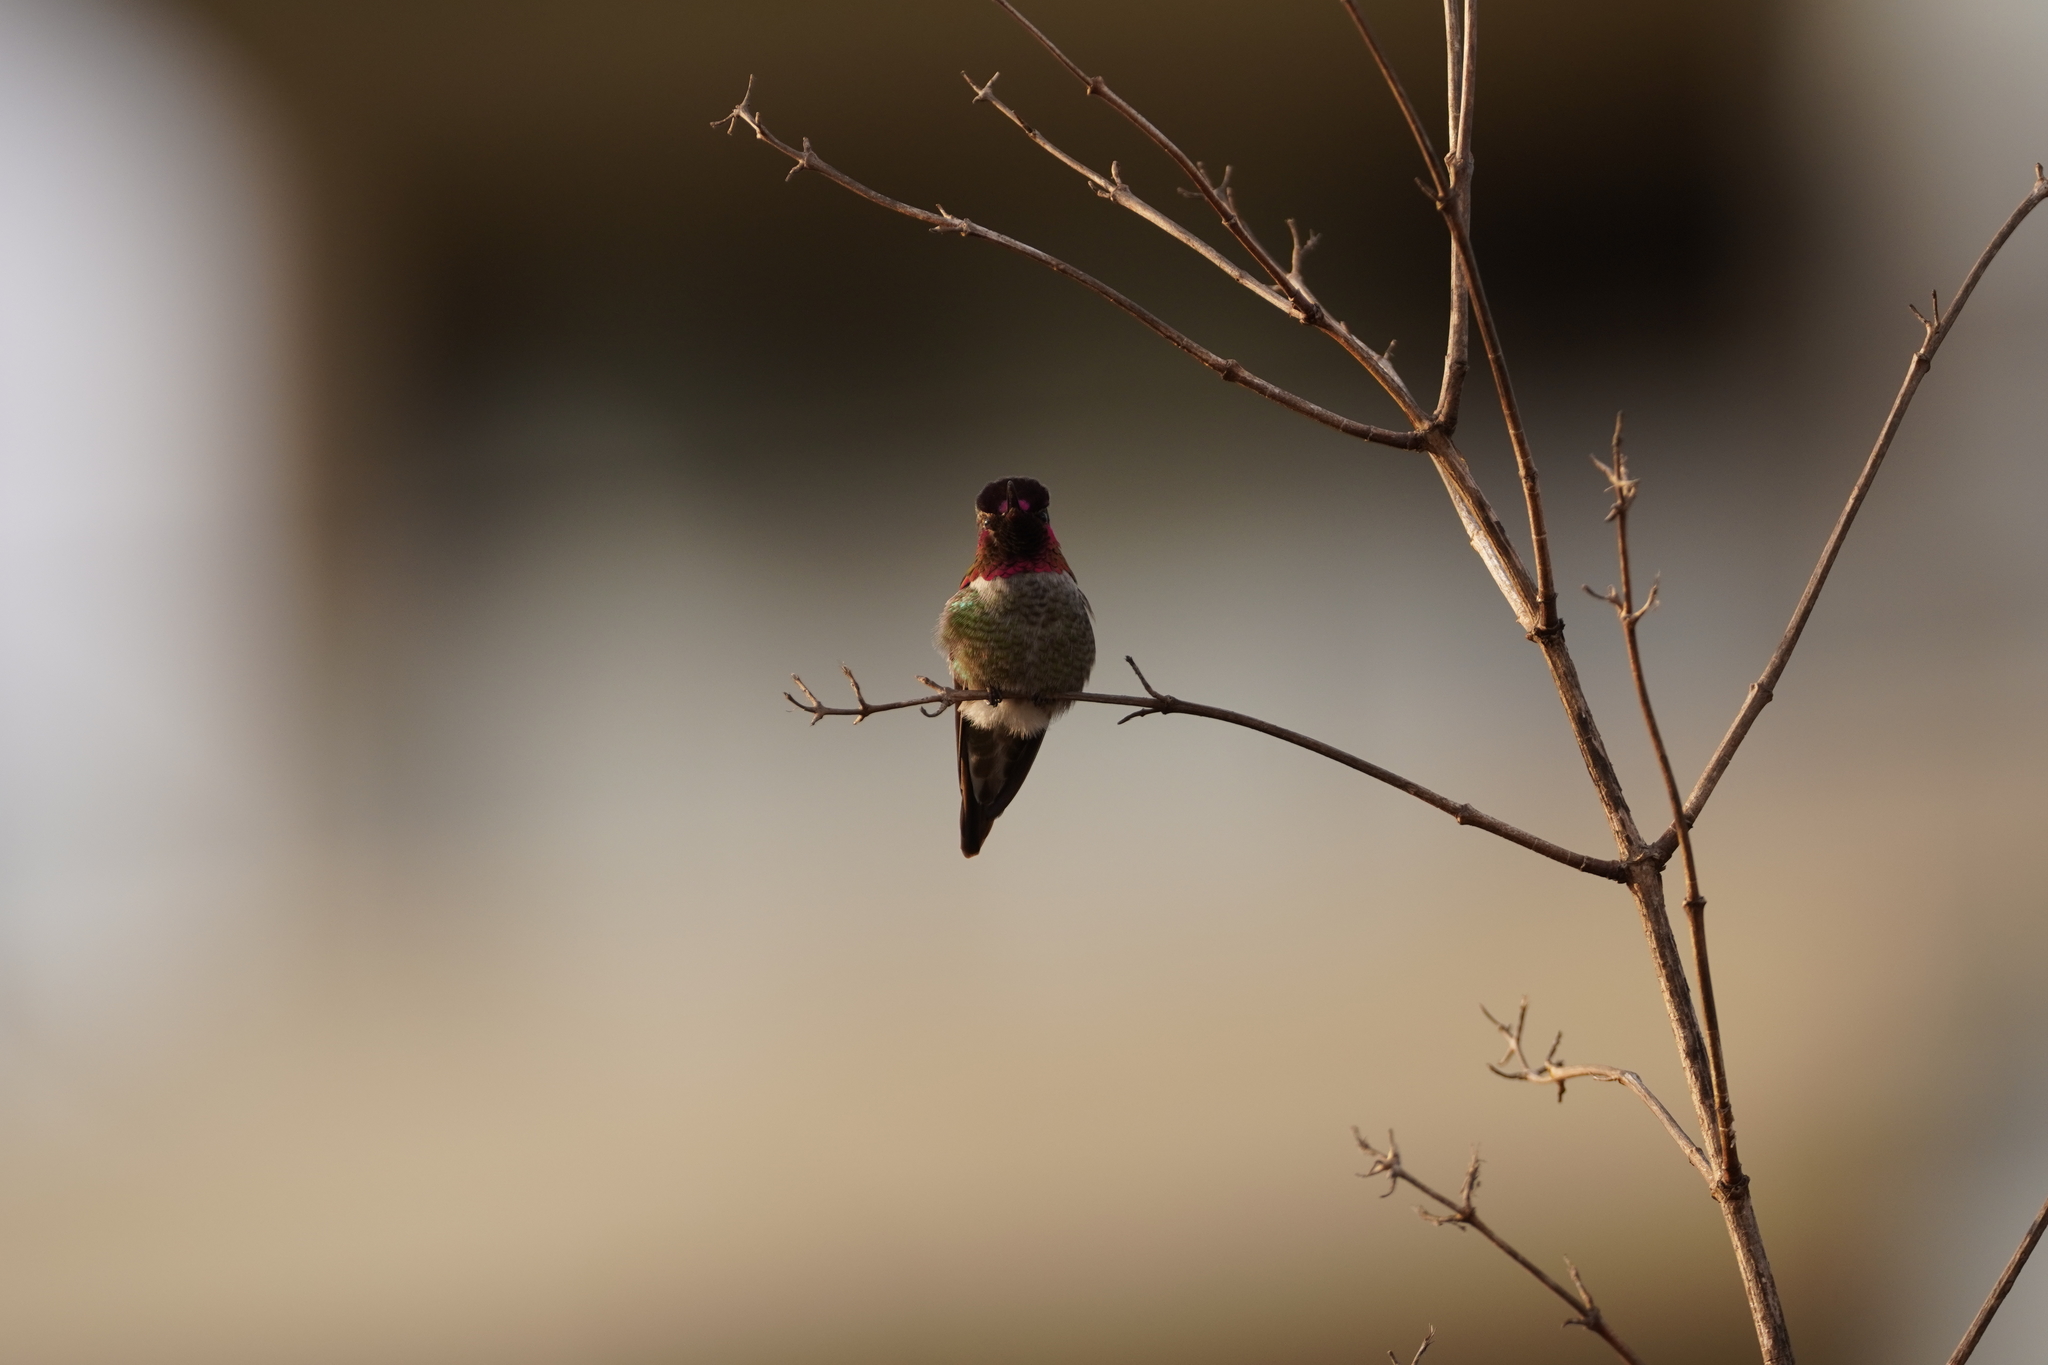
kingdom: Animalia
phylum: Chordata
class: Aves
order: Apodiformes
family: Trochilidae
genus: Calypte
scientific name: Calypte anna
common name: Anna's hummingbird
